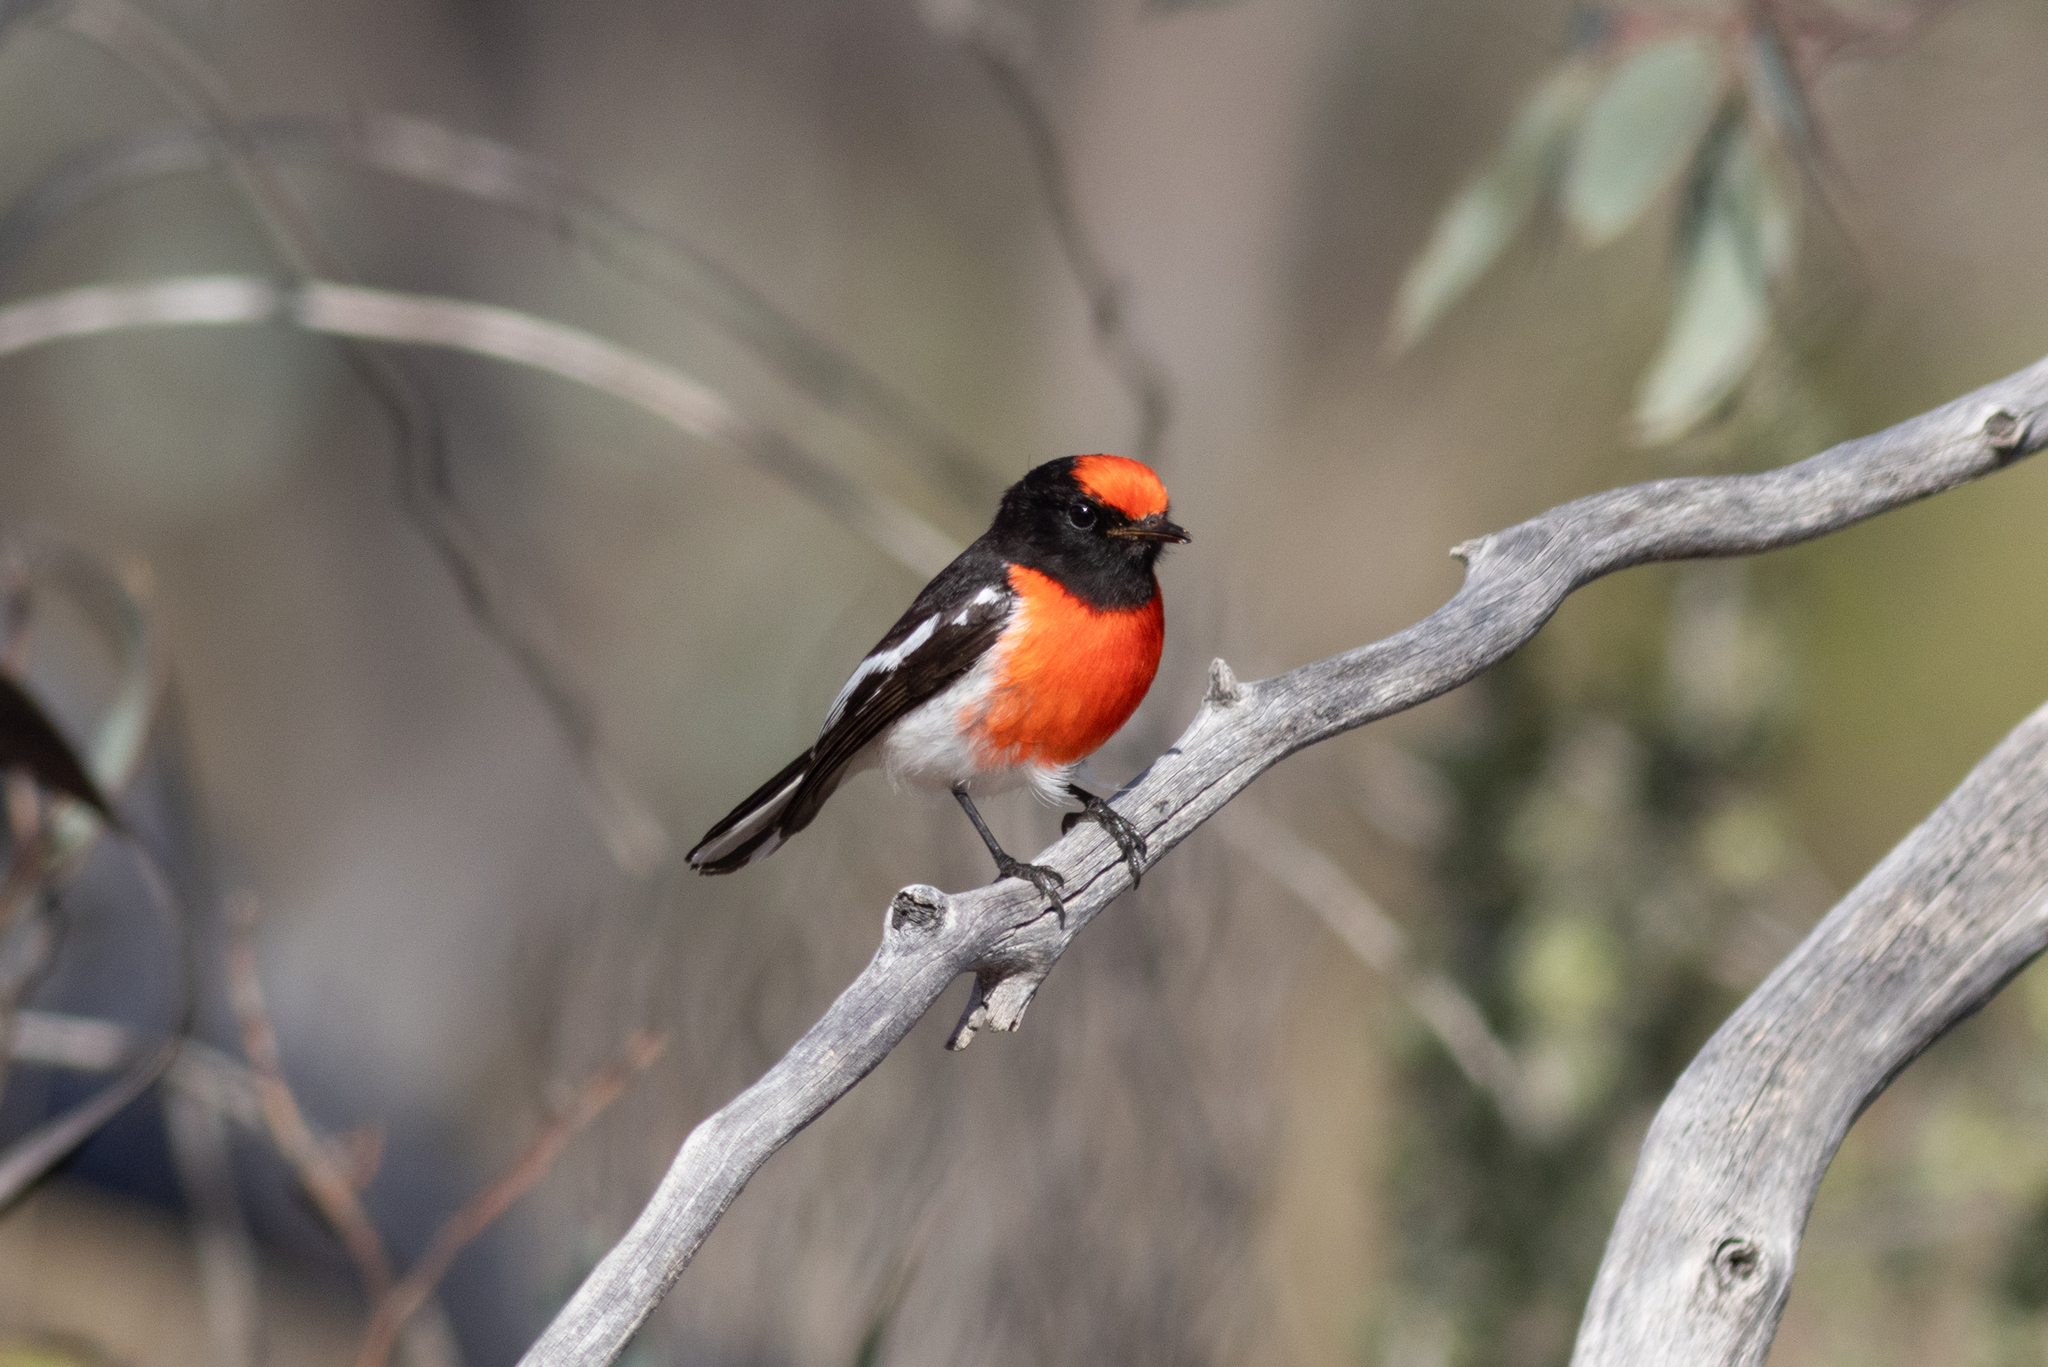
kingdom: Animalia
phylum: Chordata
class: Aves
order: Passeriformes
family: Petroicidae
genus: Petroica
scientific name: Petroica goodenovii
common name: Red-capped robin
